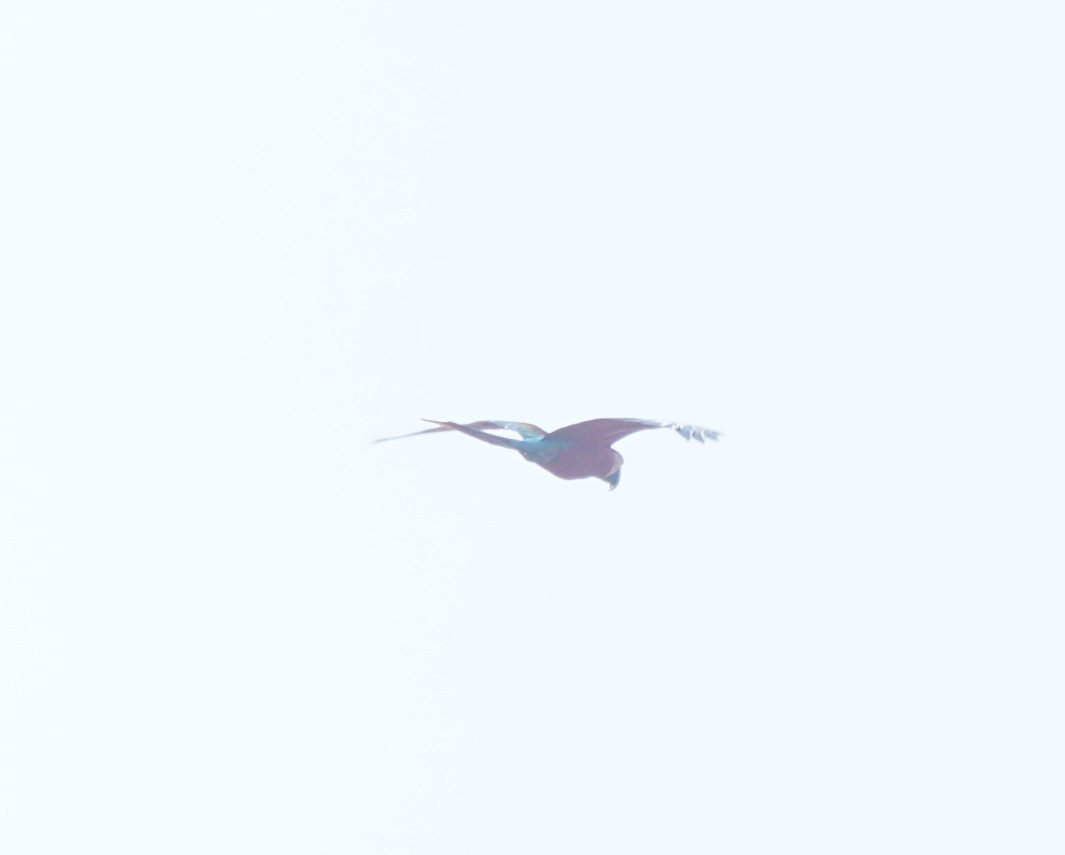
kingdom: Animalia
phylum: Chordata
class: Aves
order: Psittaciformes
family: Psittacidae
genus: Ara
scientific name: Ara chloropterus
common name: Red-and-green macaw
